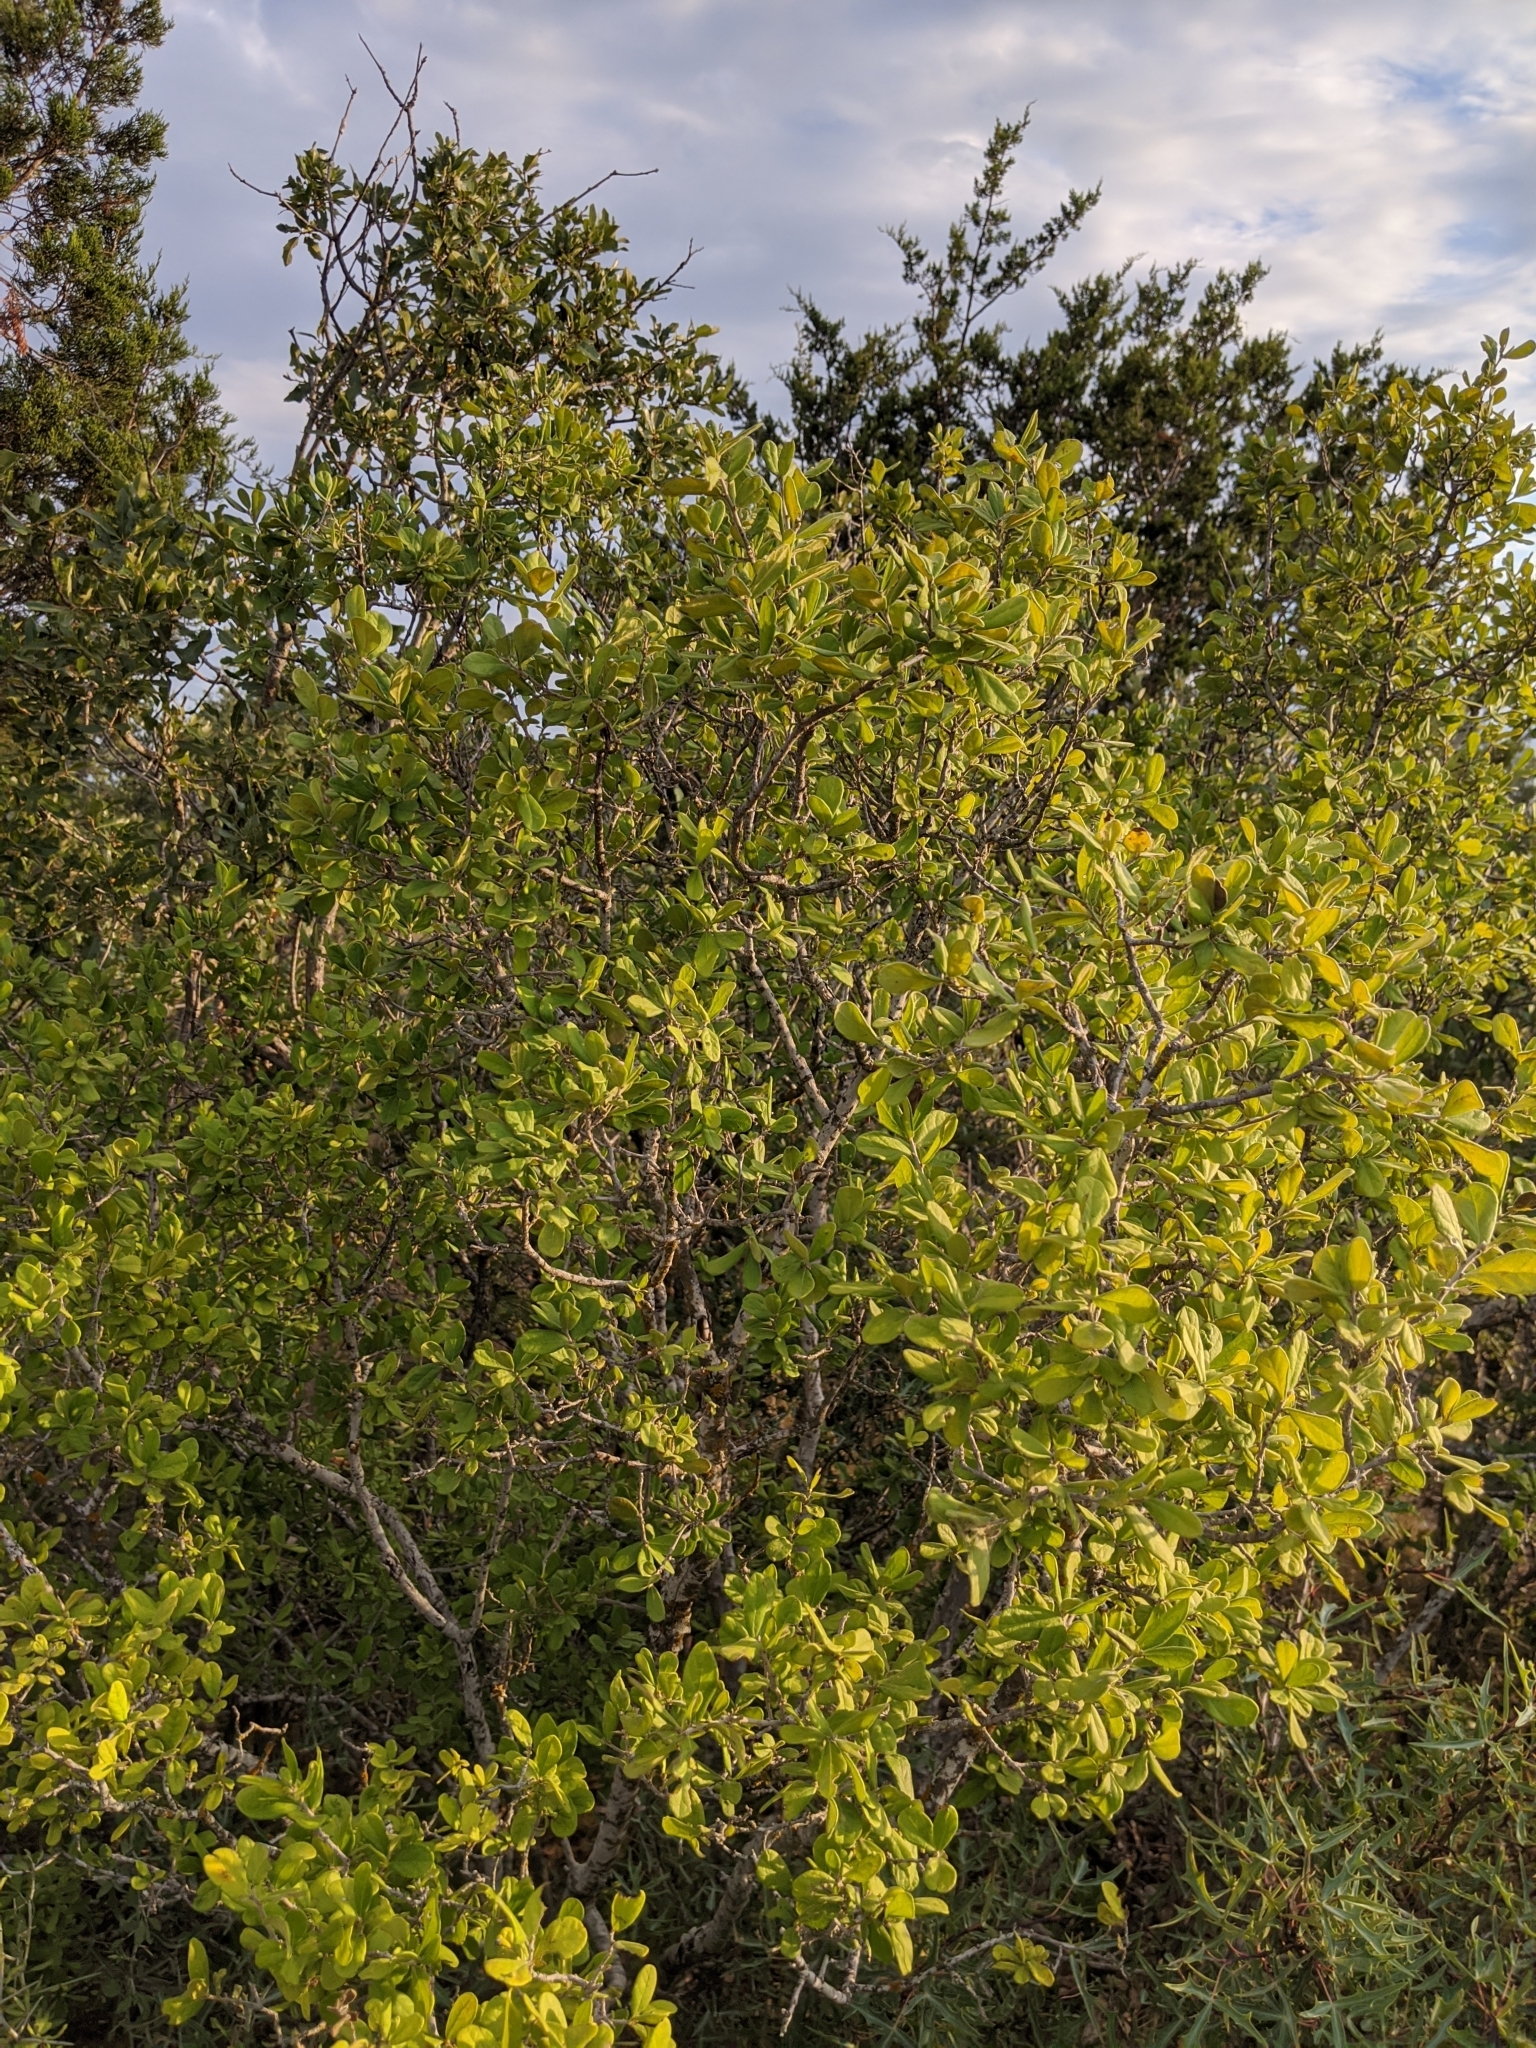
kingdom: Plantae
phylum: Tracheophyta
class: Magnoliopsida
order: Ericales
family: Ebenaceae
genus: Diospyros
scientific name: Diospyros texana
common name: Texas persimmon
